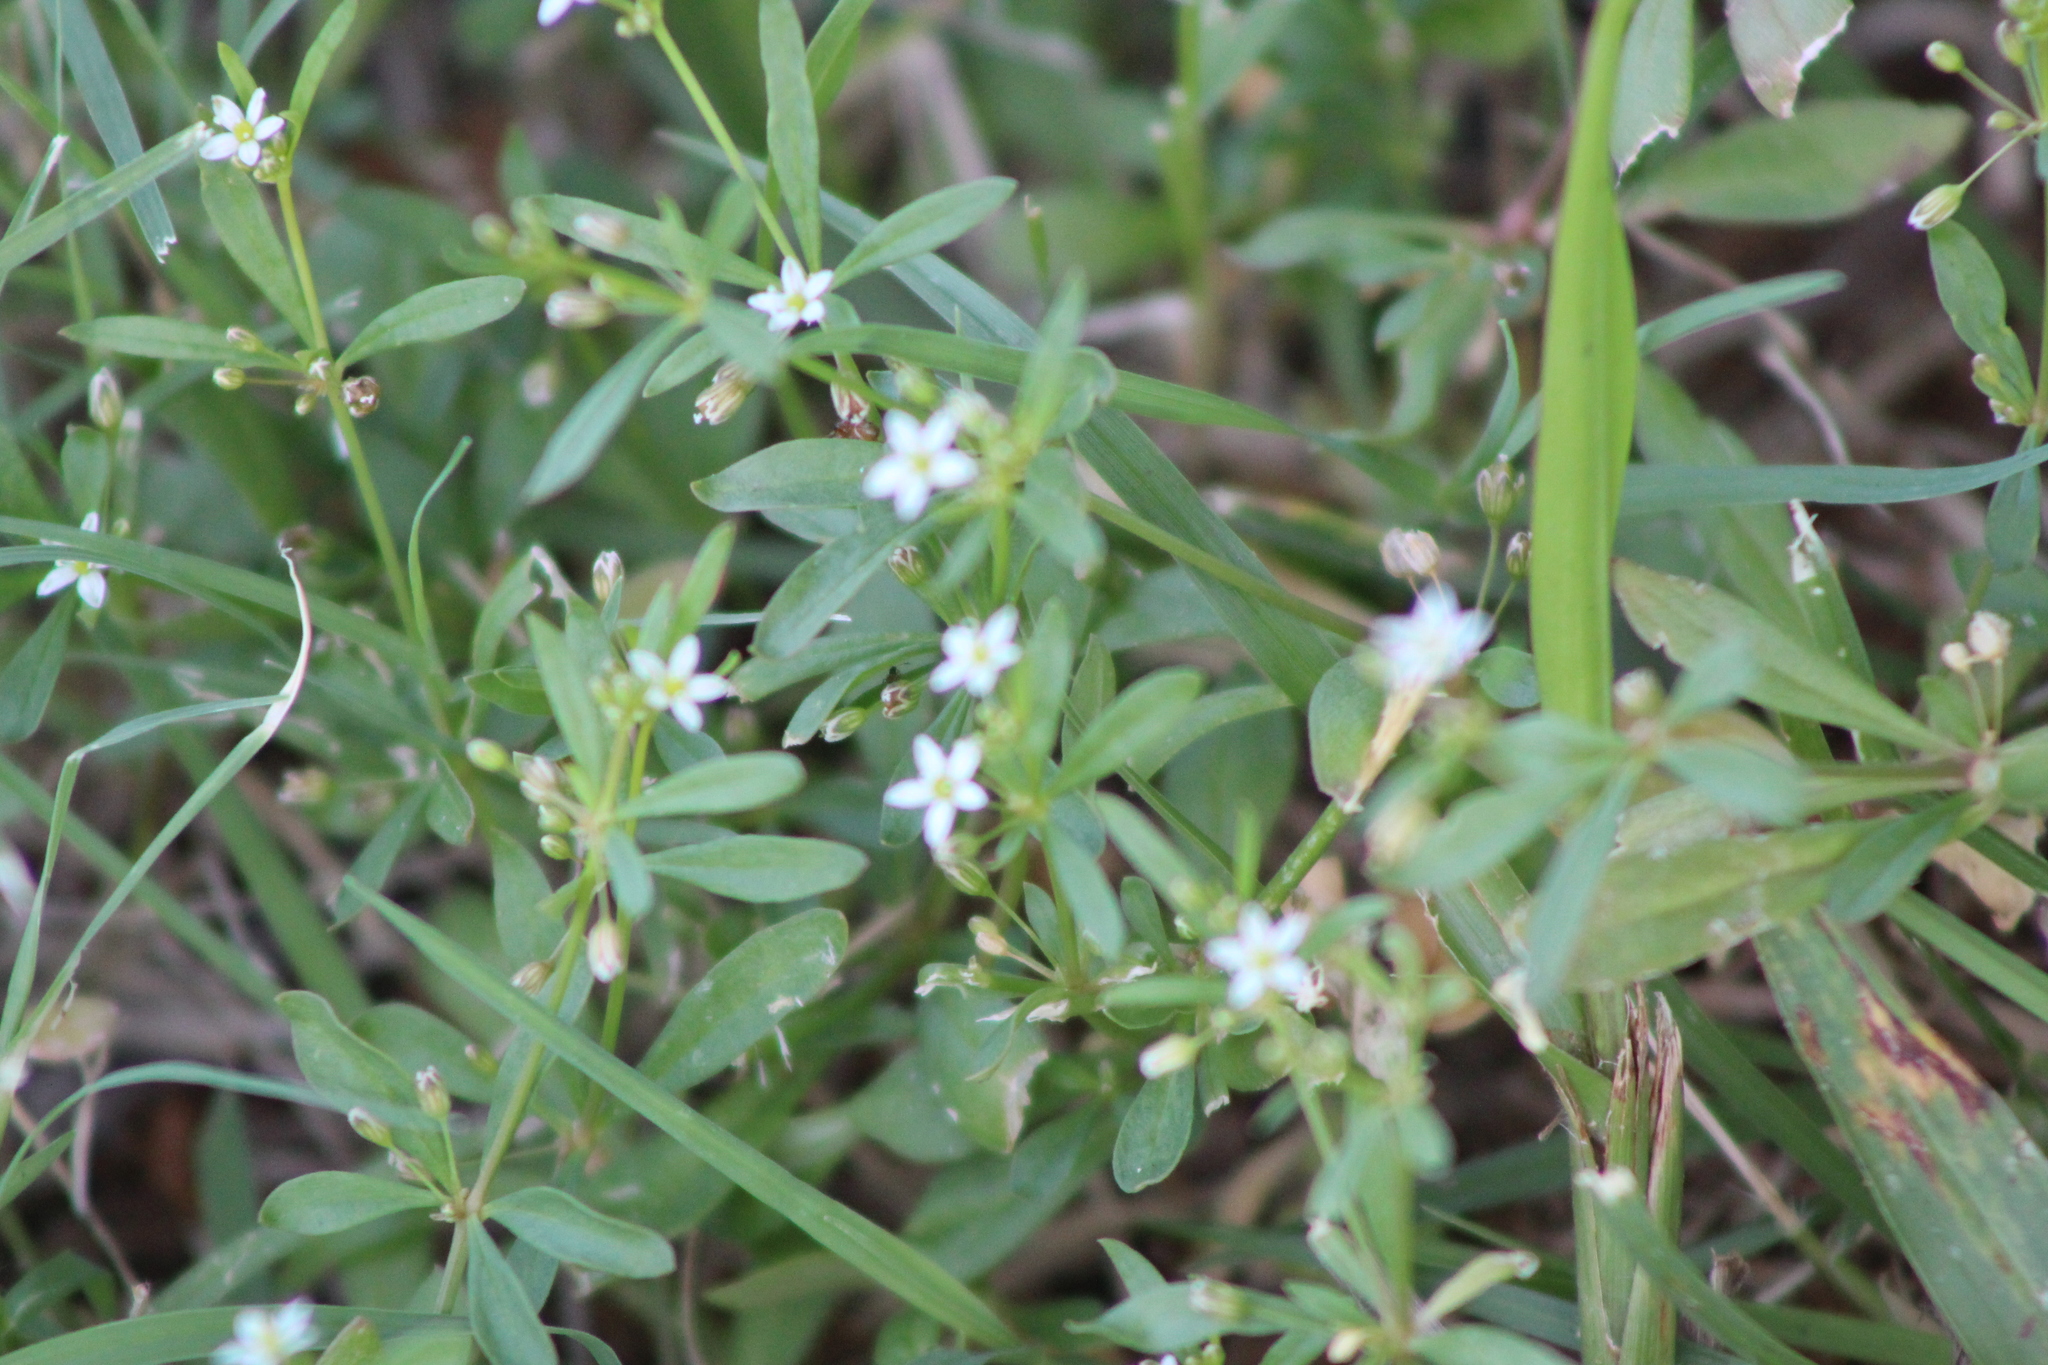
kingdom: Plantae
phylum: Tracheophyta
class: Magnoliopsida
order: Caryophyllales
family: Molluginaceae
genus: Mollugo
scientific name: Mollugo verticillata
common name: Green carpetweed
